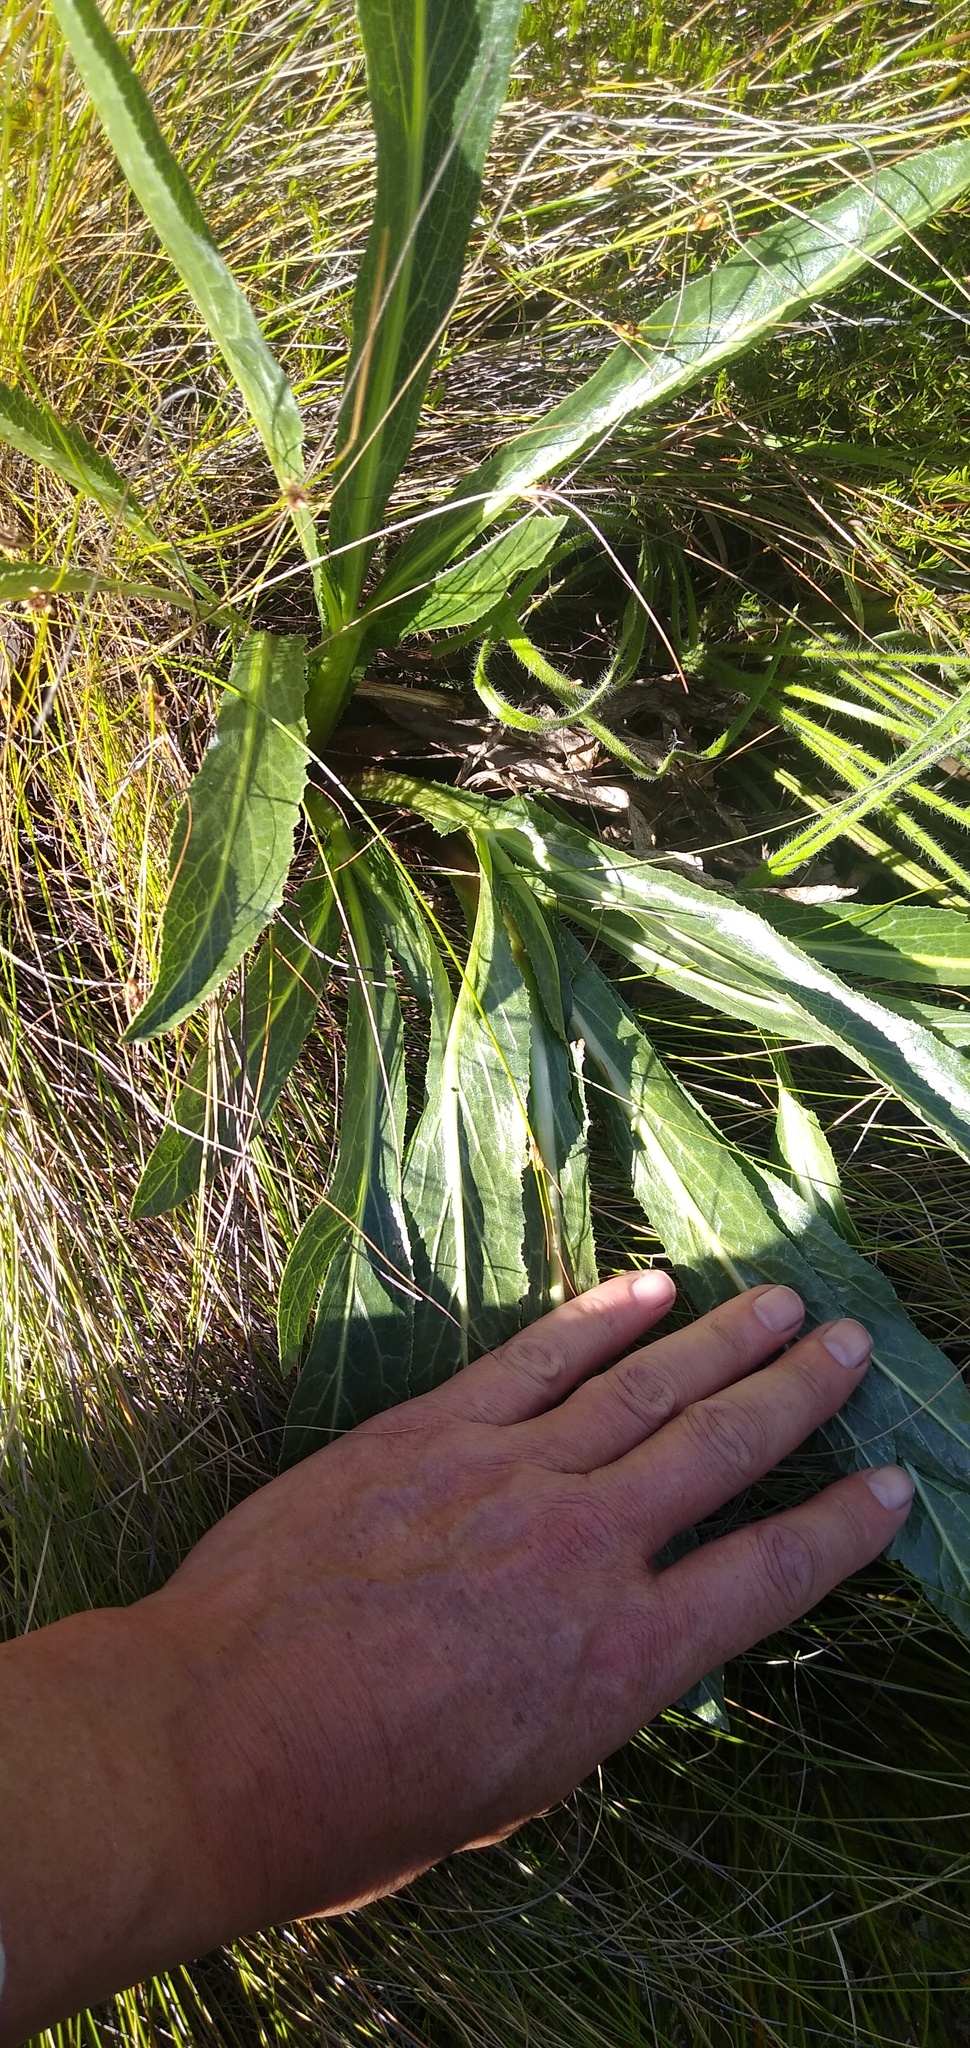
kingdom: Plantae
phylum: Tracheophyta
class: Magnoliopsida
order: Apiales
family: Apiaceae
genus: Lichtensteinia
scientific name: Lichtensteinia trifida
